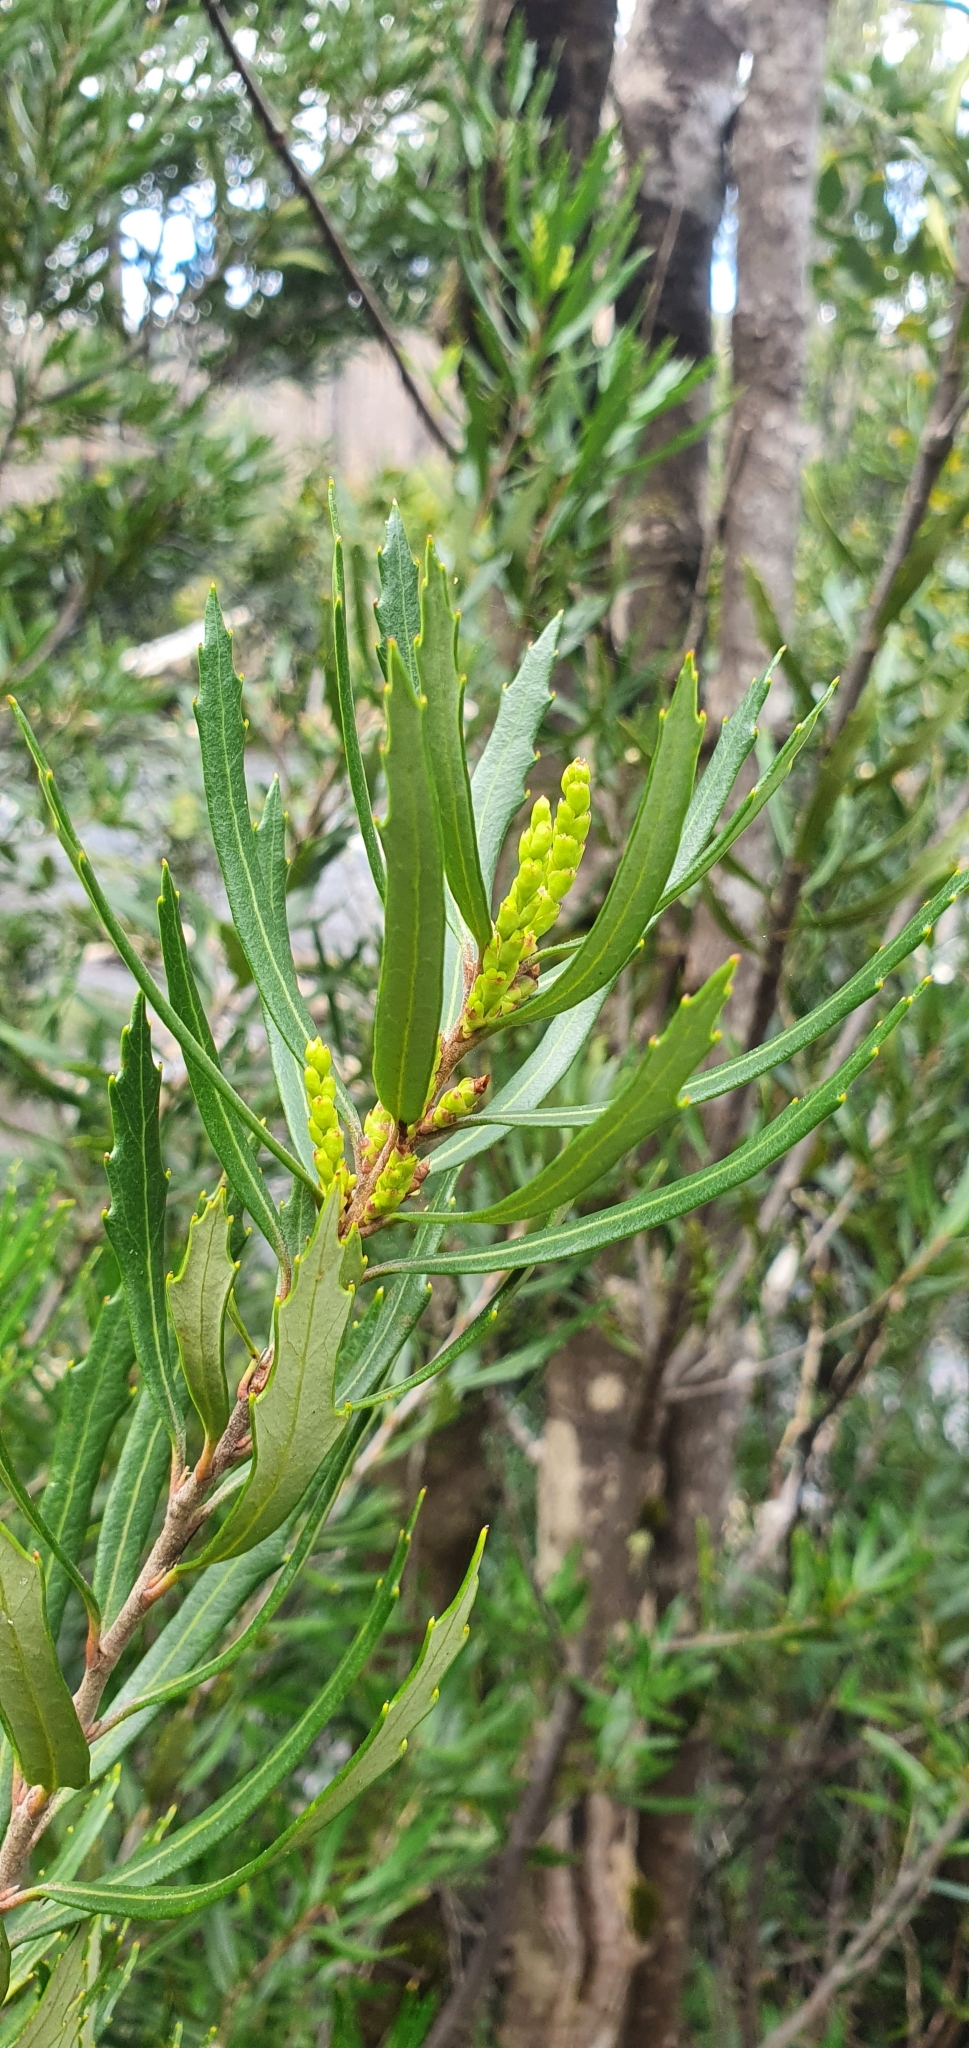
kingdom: Plantae
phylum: Tracheophyta
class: Magnoliopsida
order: Proteales
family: Proteaceae
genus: Orites
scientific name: Orites diversifolius
